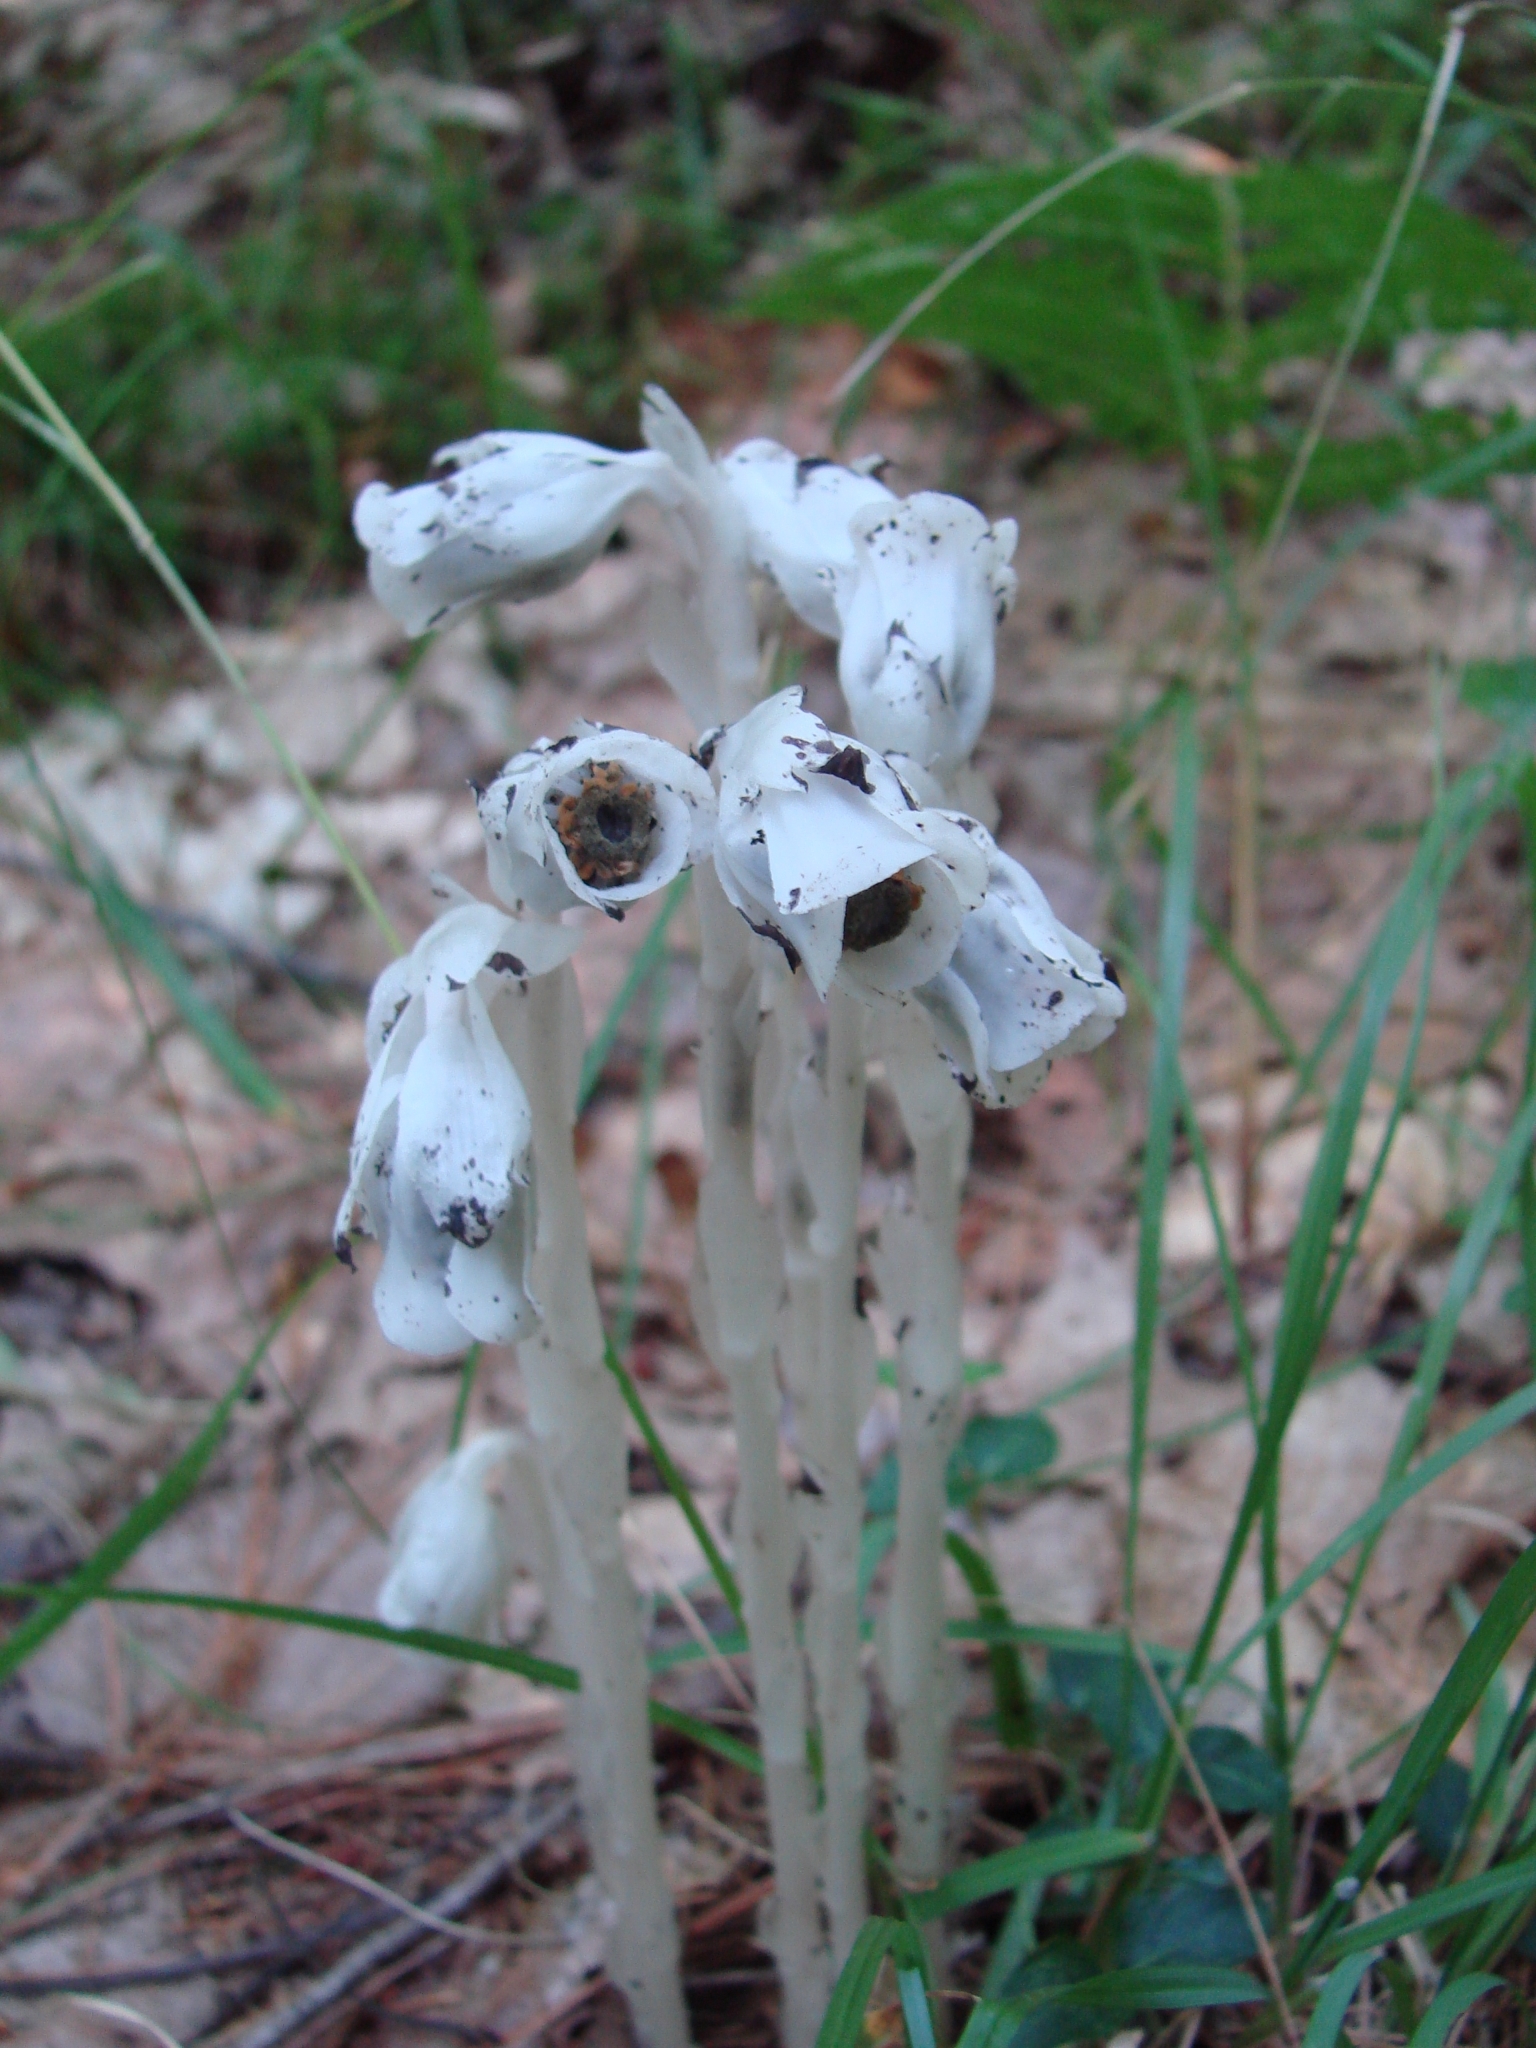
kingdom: Plantae
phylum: Tracheophyta
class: Magnoliopsida
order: Ericales
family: Ericaceae
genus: Monotropa
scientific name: Monotropa uniflora
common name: Convulsion root
